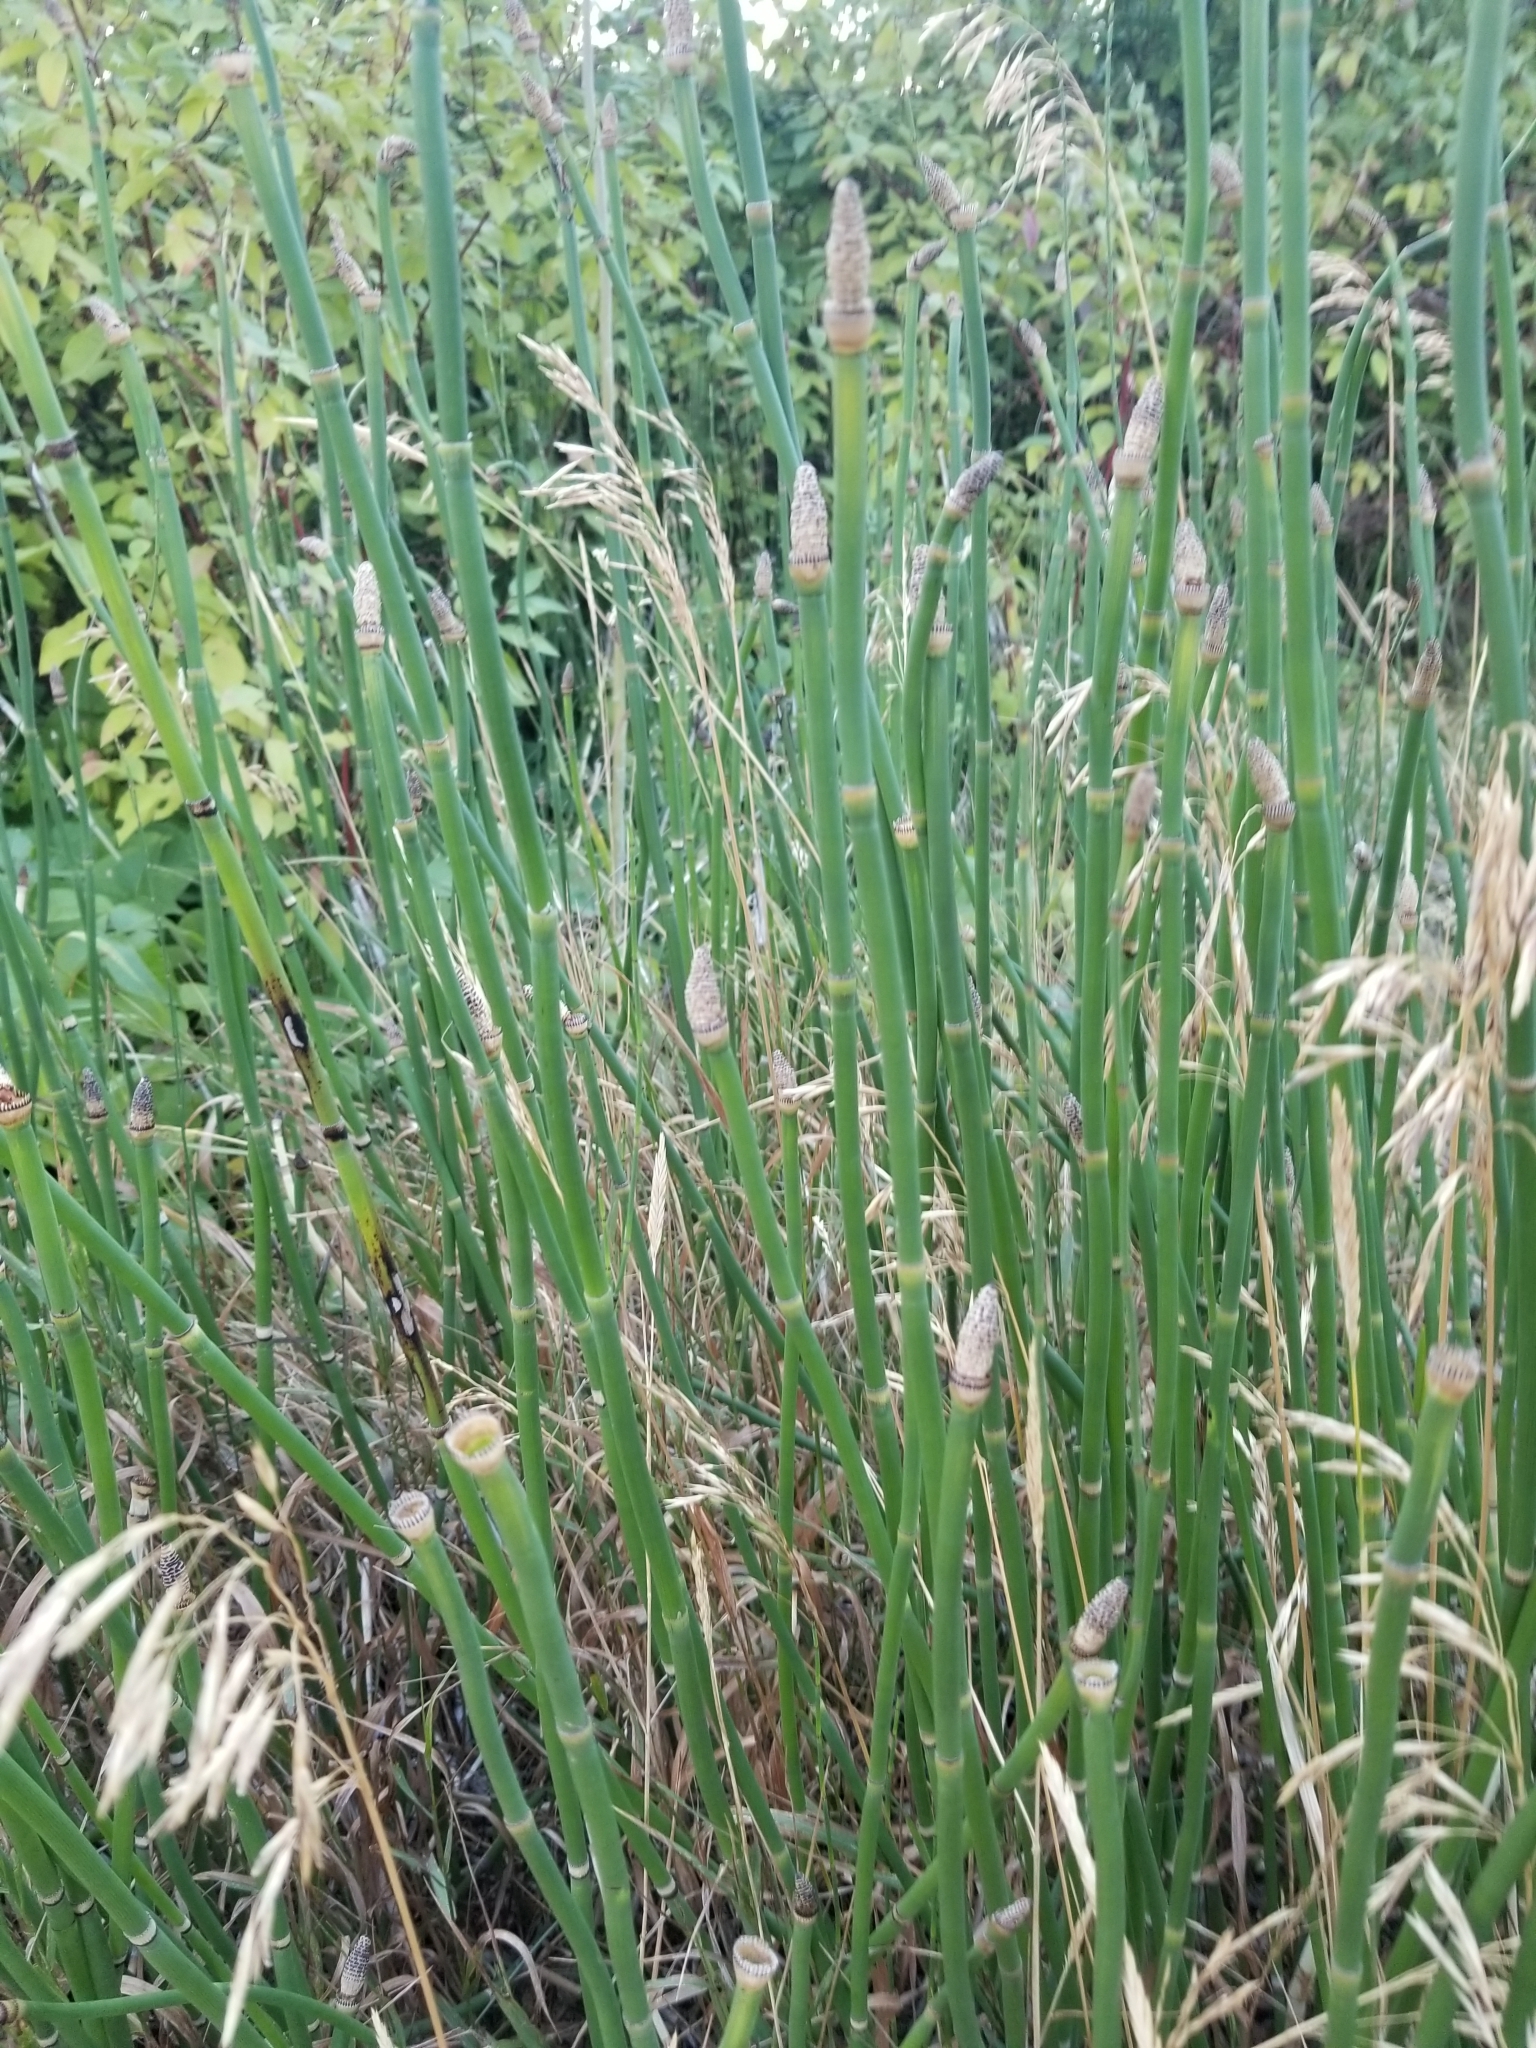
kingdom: Plantae
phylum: Tracheophyta
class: Polypodiopsida
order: Equisetales
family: Equisetaceae
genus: Equisetum
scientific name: Equisetum hyemale
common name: Rough horsetail
